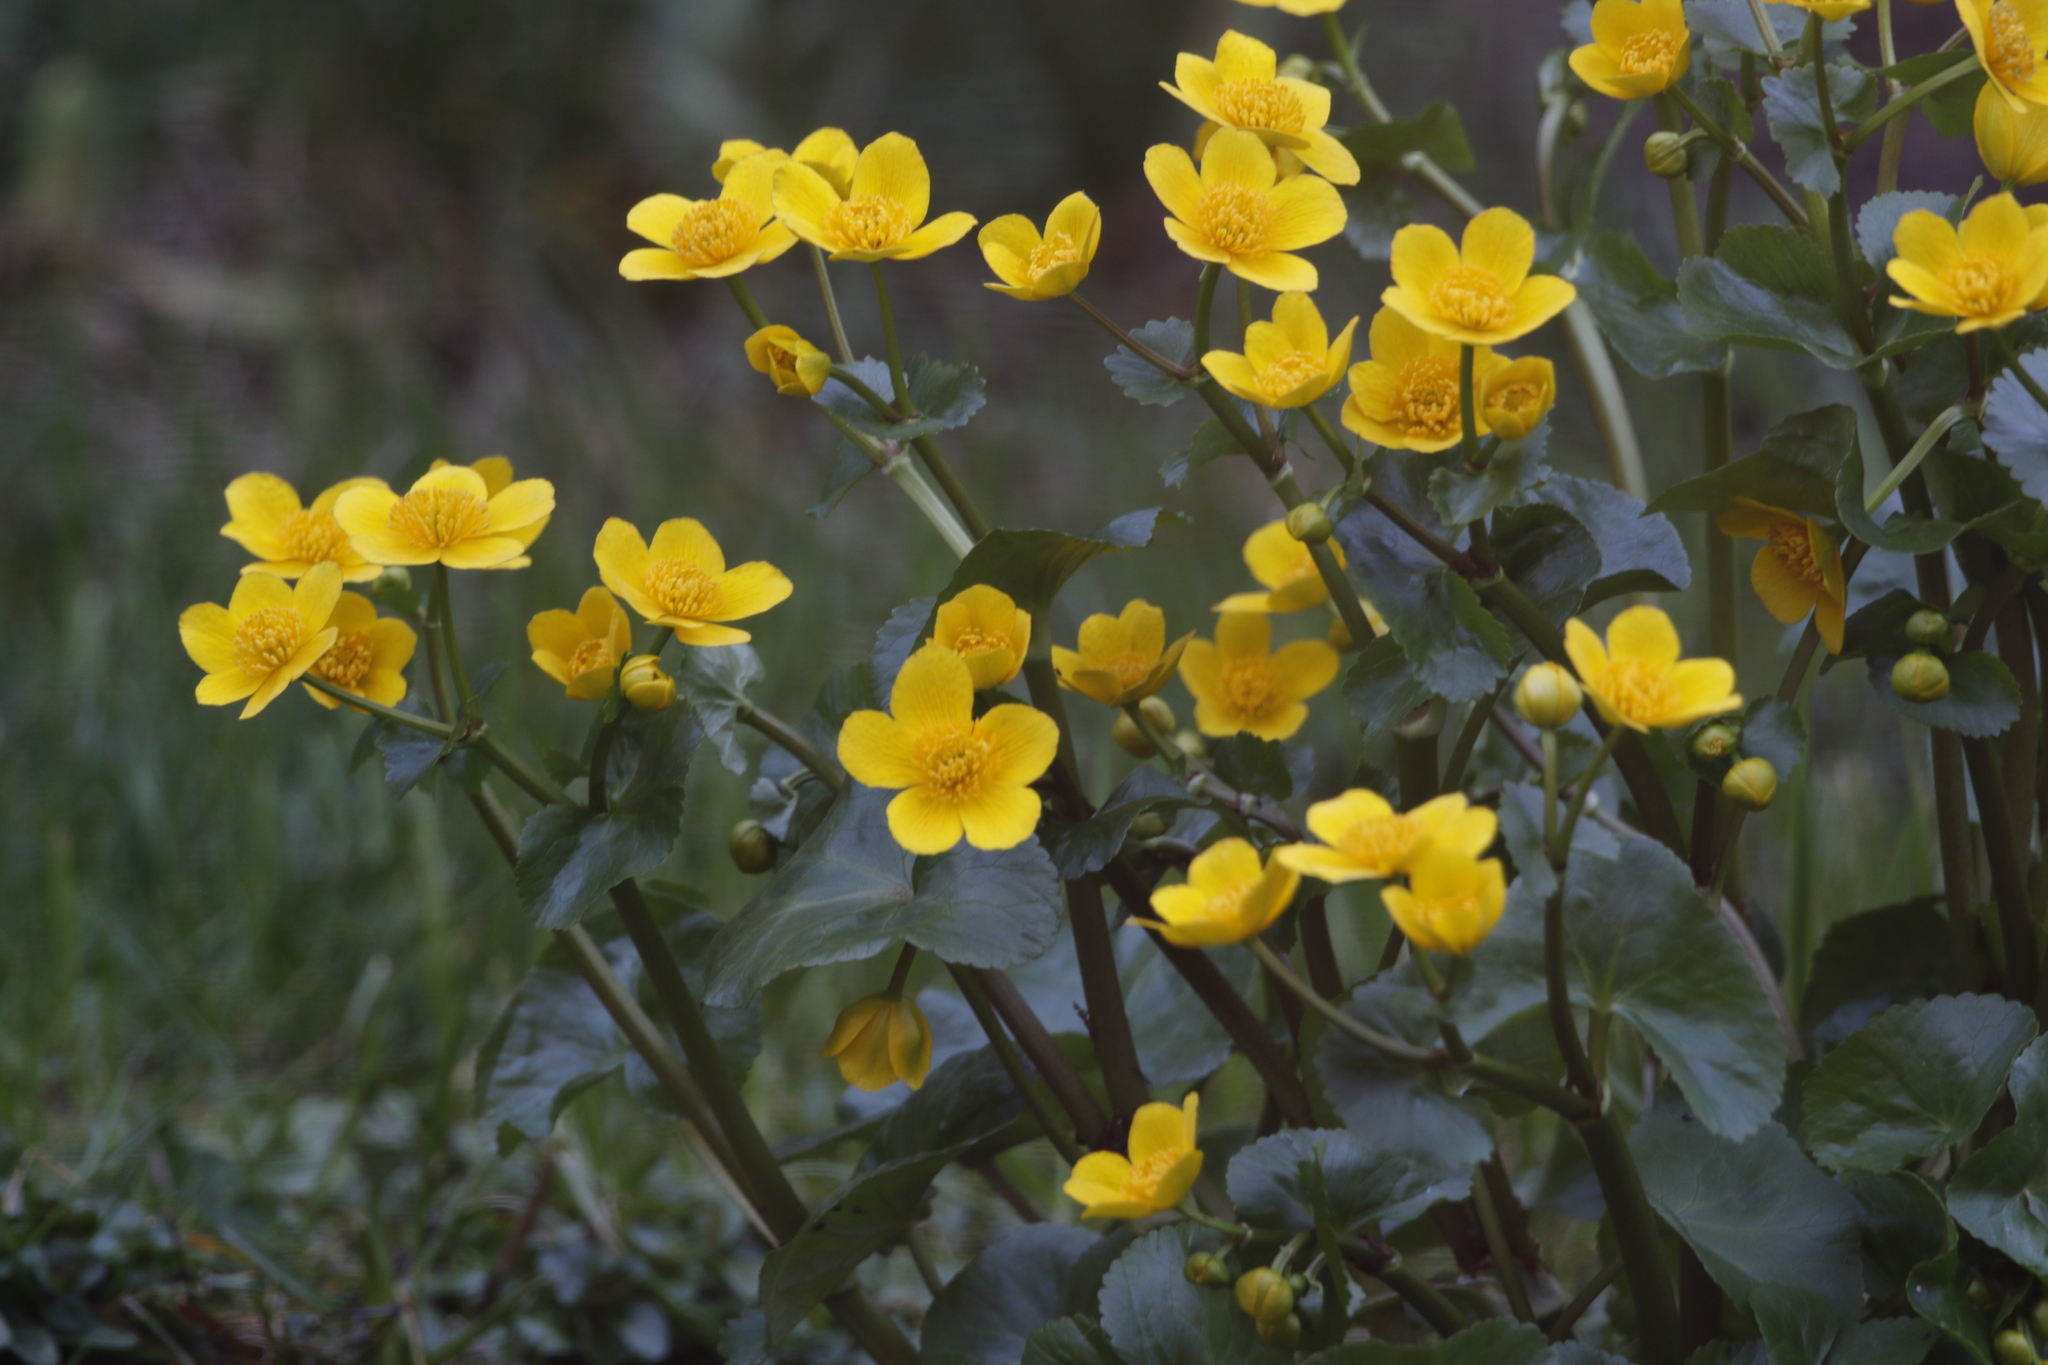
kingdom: Plantae
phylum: Tracheophyta
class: Magnoliopsida
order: Ranunculales
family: Ranunculaceae
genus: Caltha
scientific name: Caltha palustris
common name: Marsh marigold
